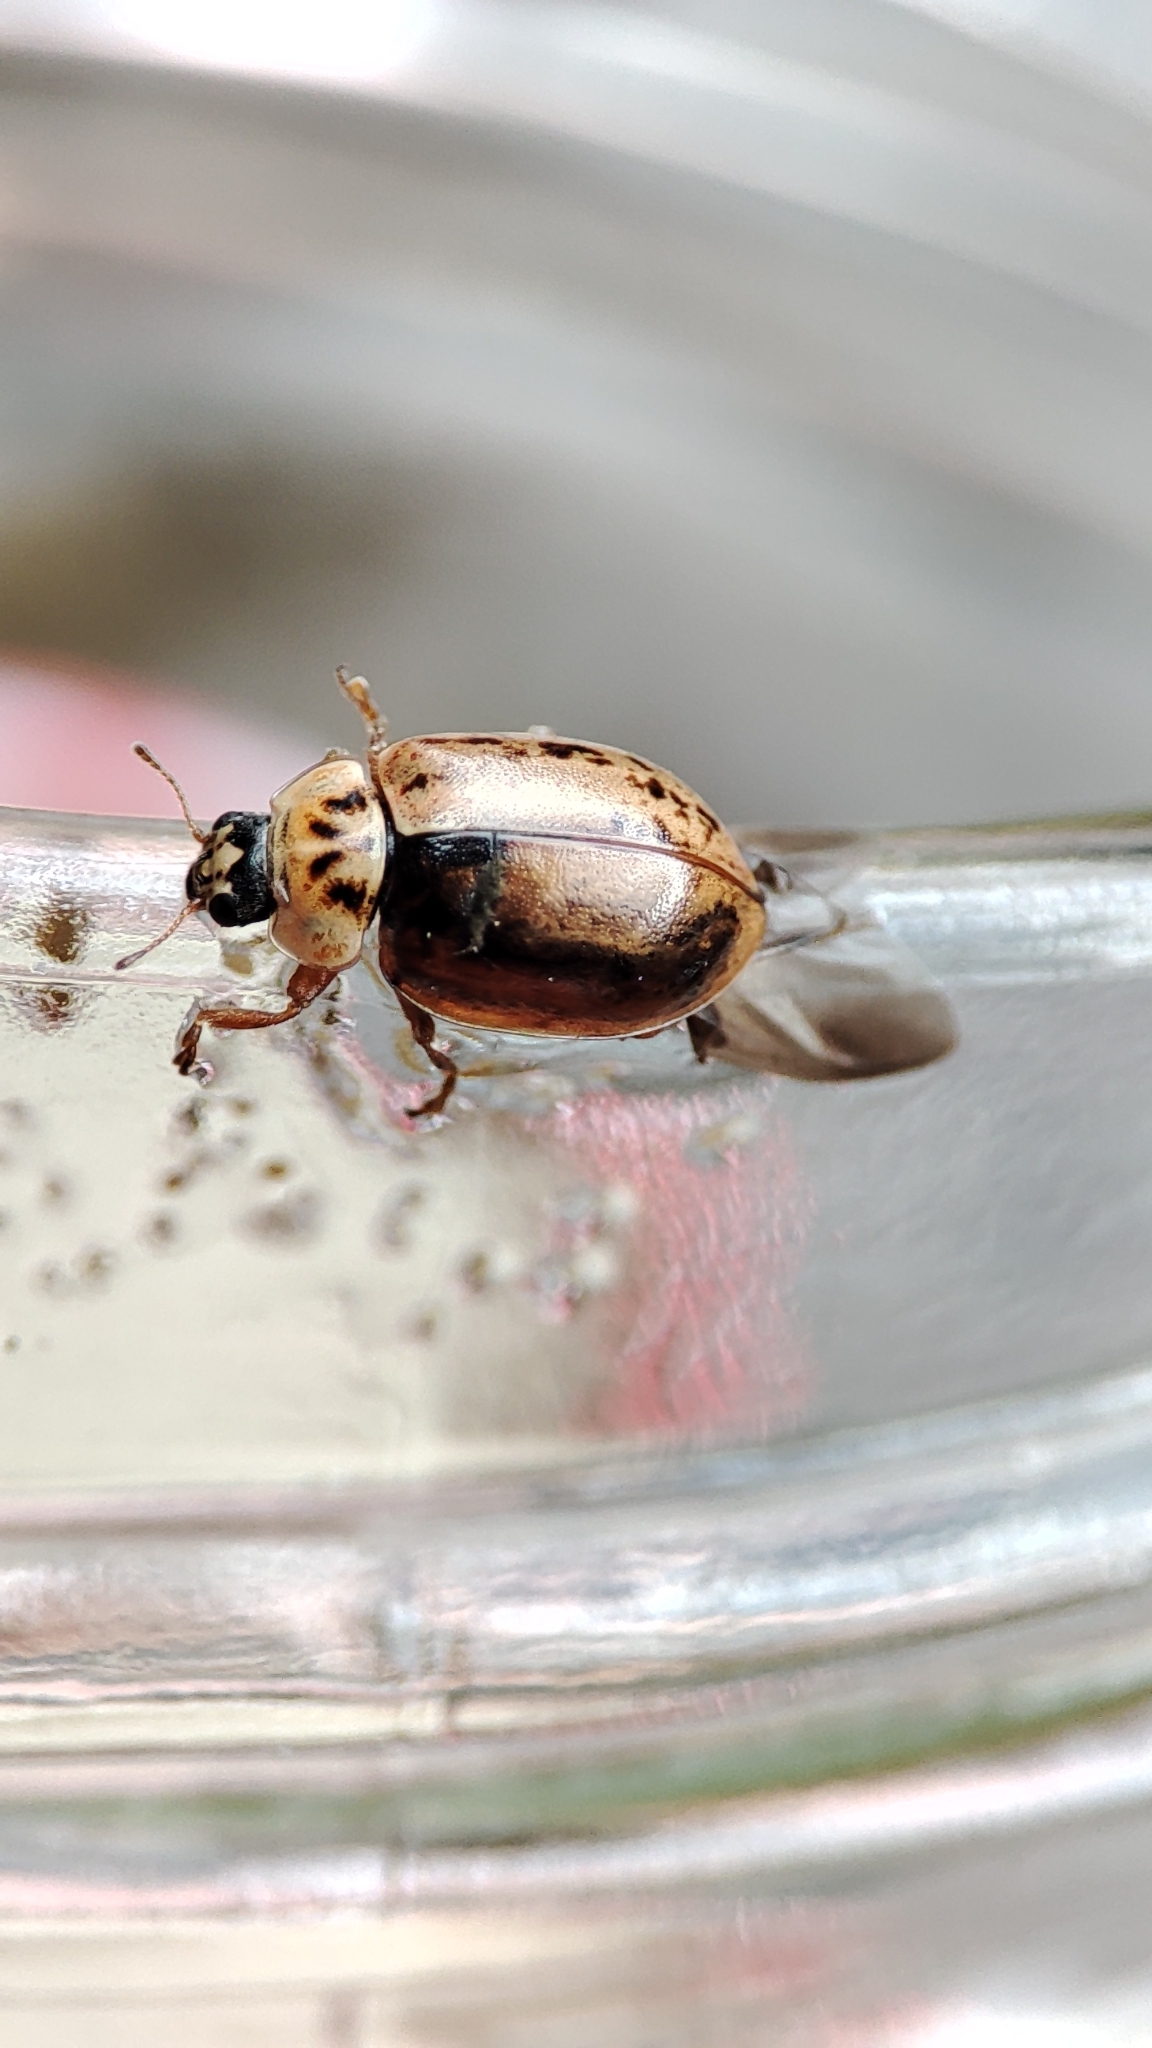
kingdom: Animalia
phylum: Arthropoda
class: Insecta
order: Coleoptera
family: Coccinellidae
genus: Aphidecta
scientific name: Aphidecta obliterata
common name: Larch ladybird
